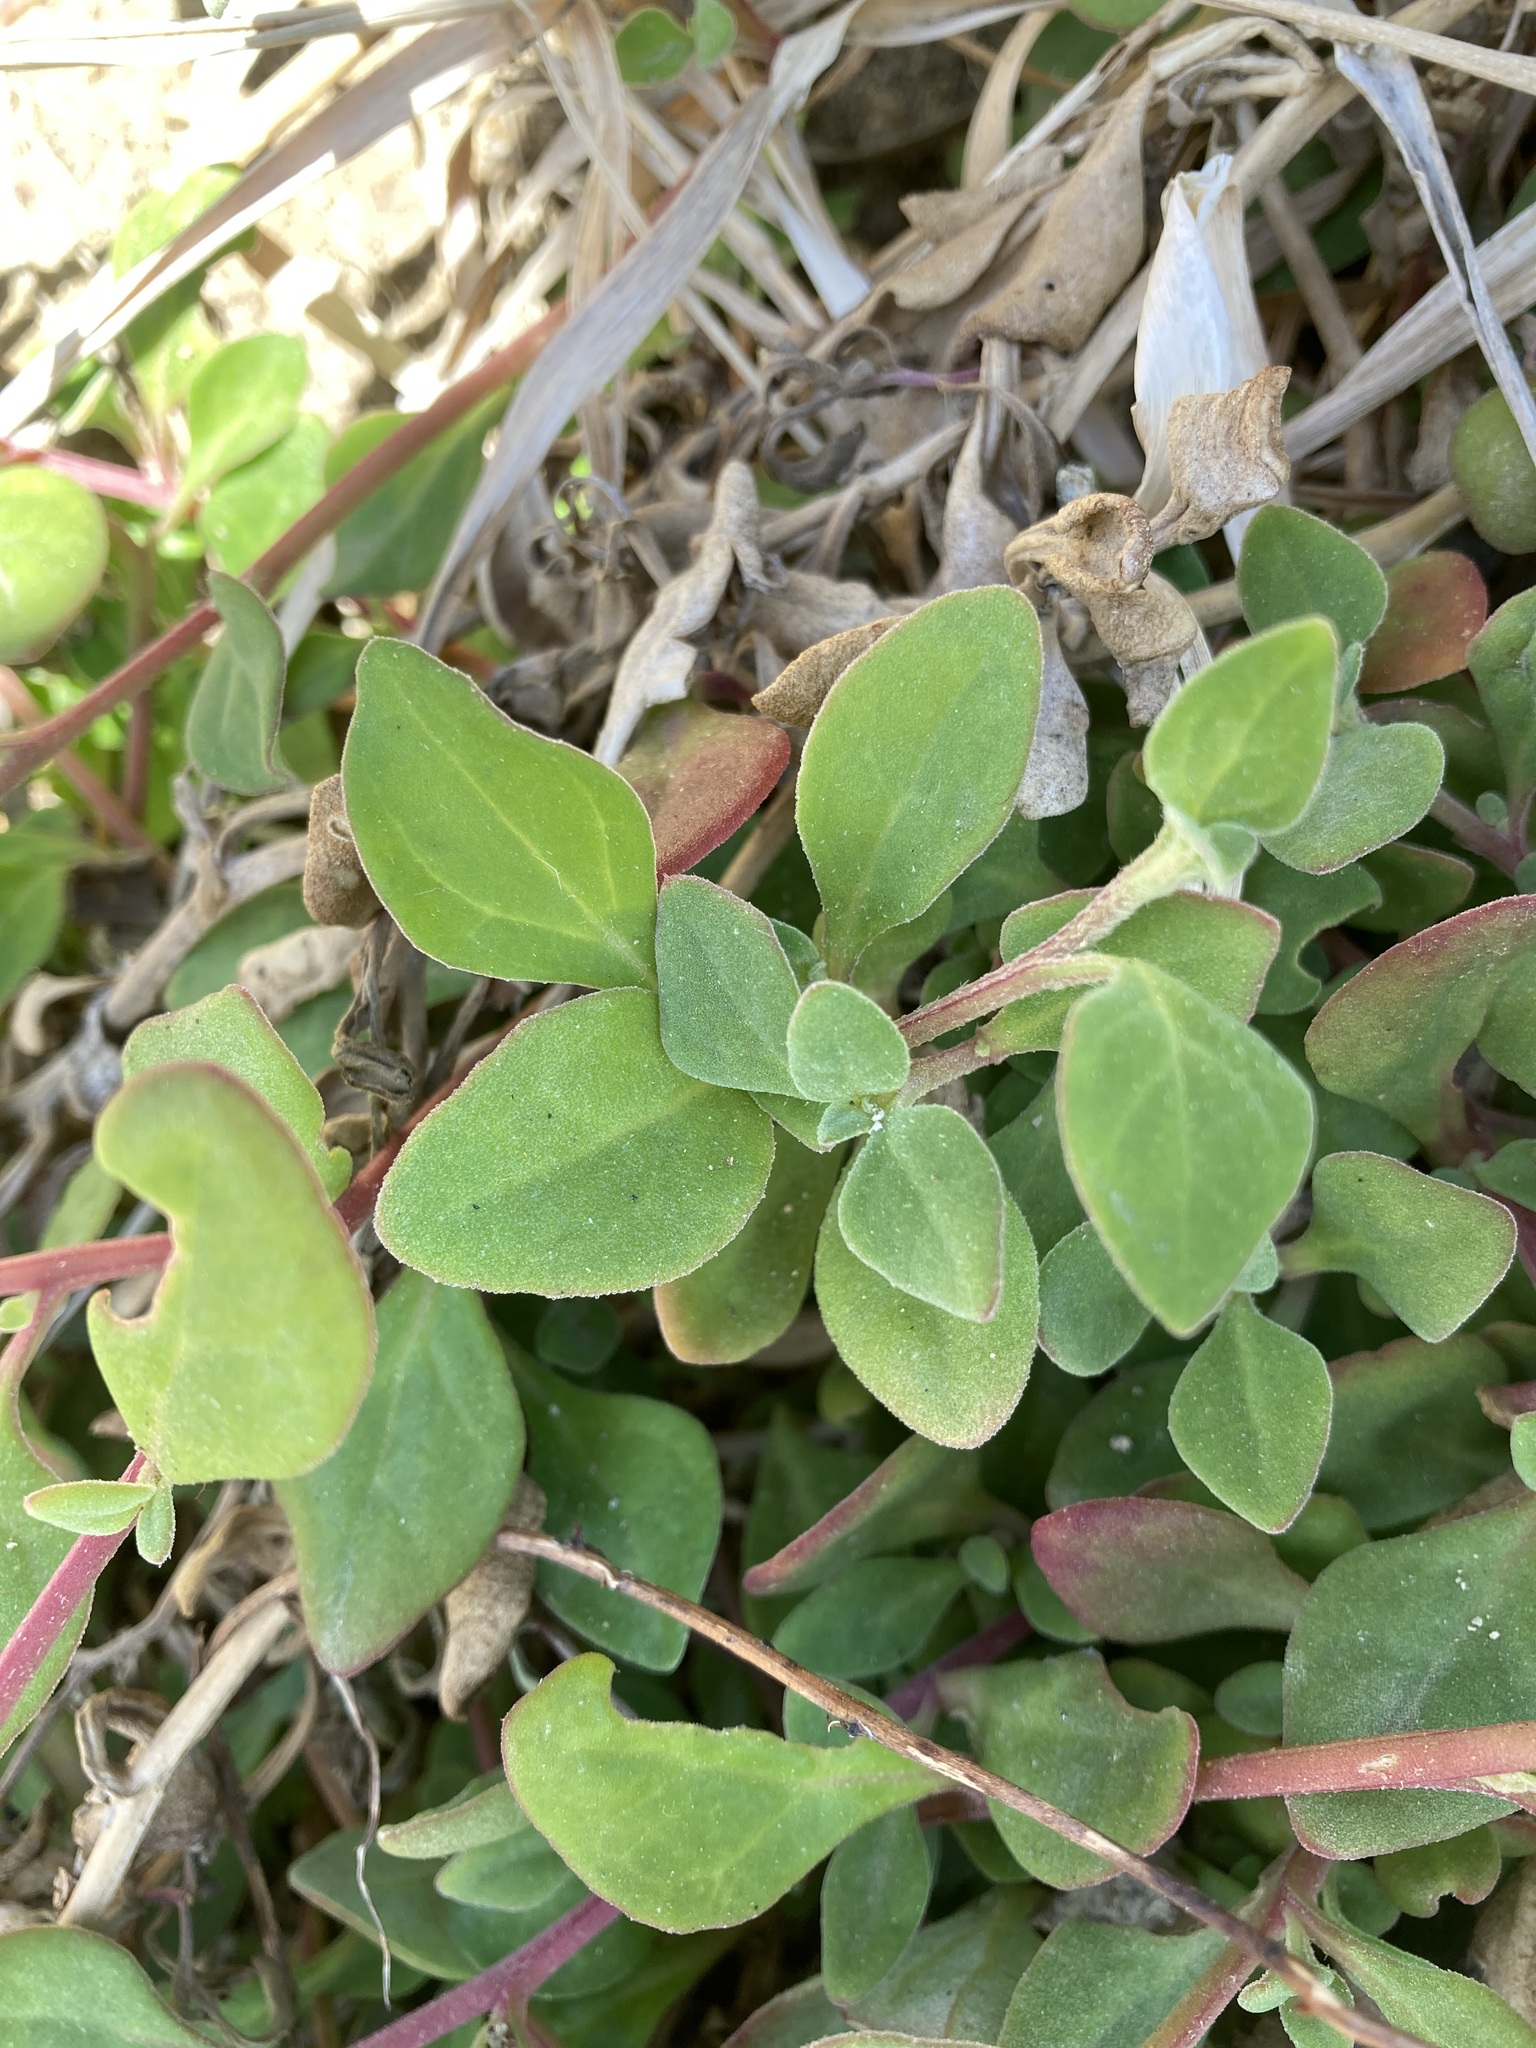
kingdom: Plantae
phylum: Tracheophyta
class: Magnoliopsida
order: Caryophyllales
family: Aizoaceae
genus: Tetragonia
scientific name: Tetragonia implexicoma
